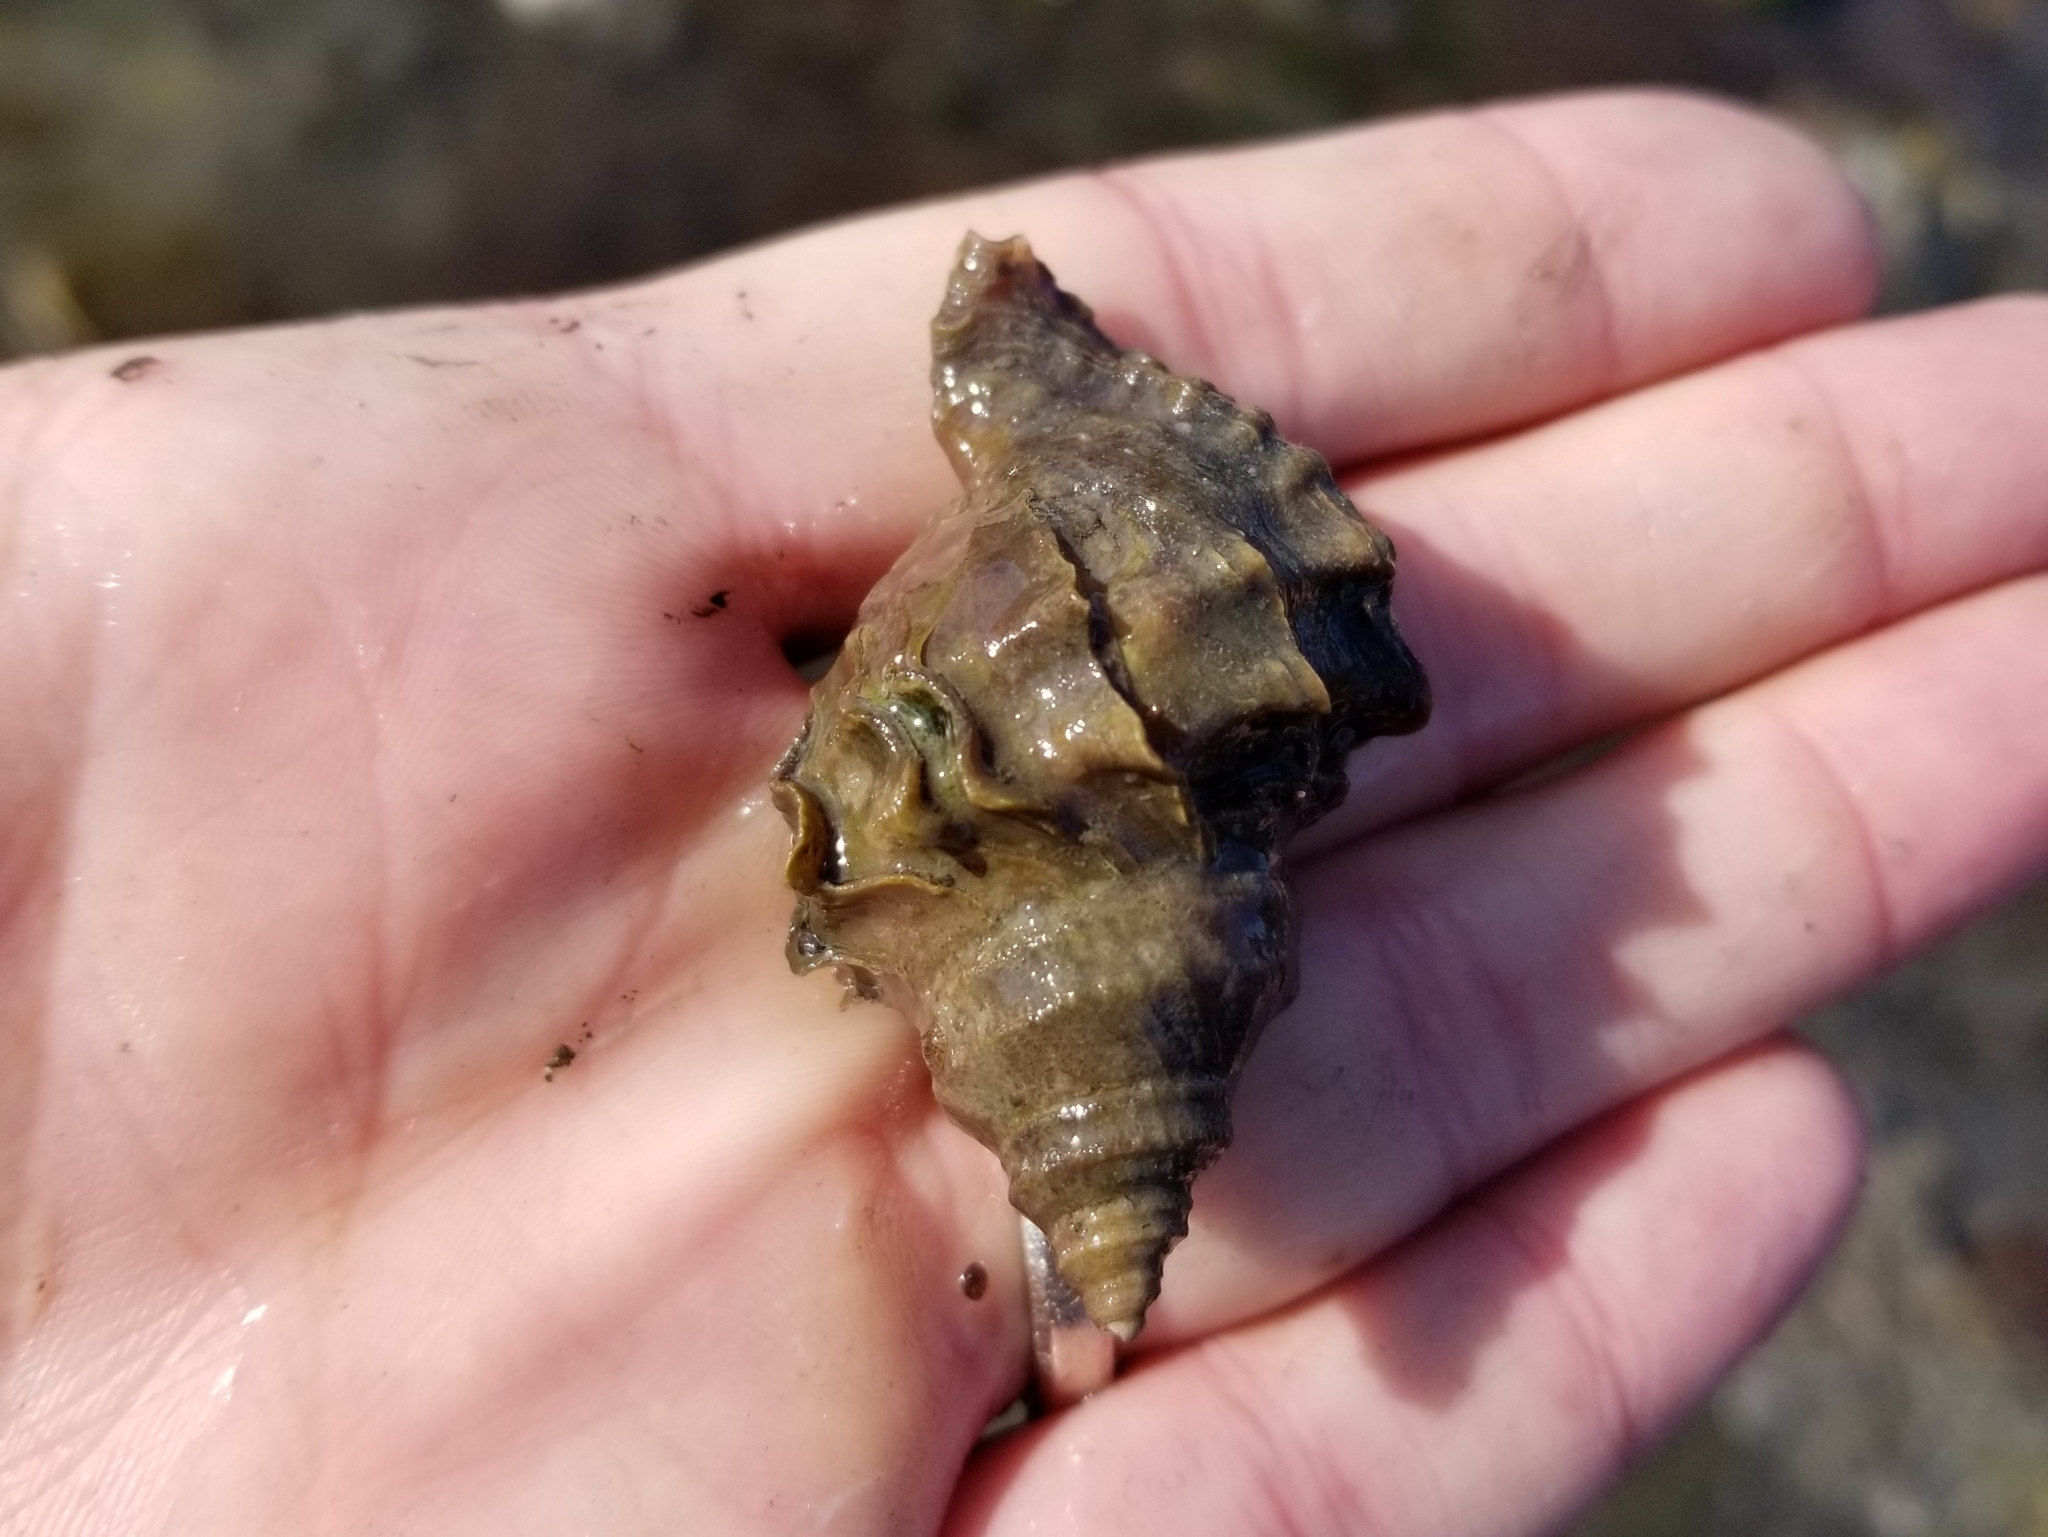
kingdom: Animalia
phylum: Mollusca
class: Gastropoda
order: Neogastropoda
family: Muricidae
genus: Nucella
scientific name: Nucella lamellosa
